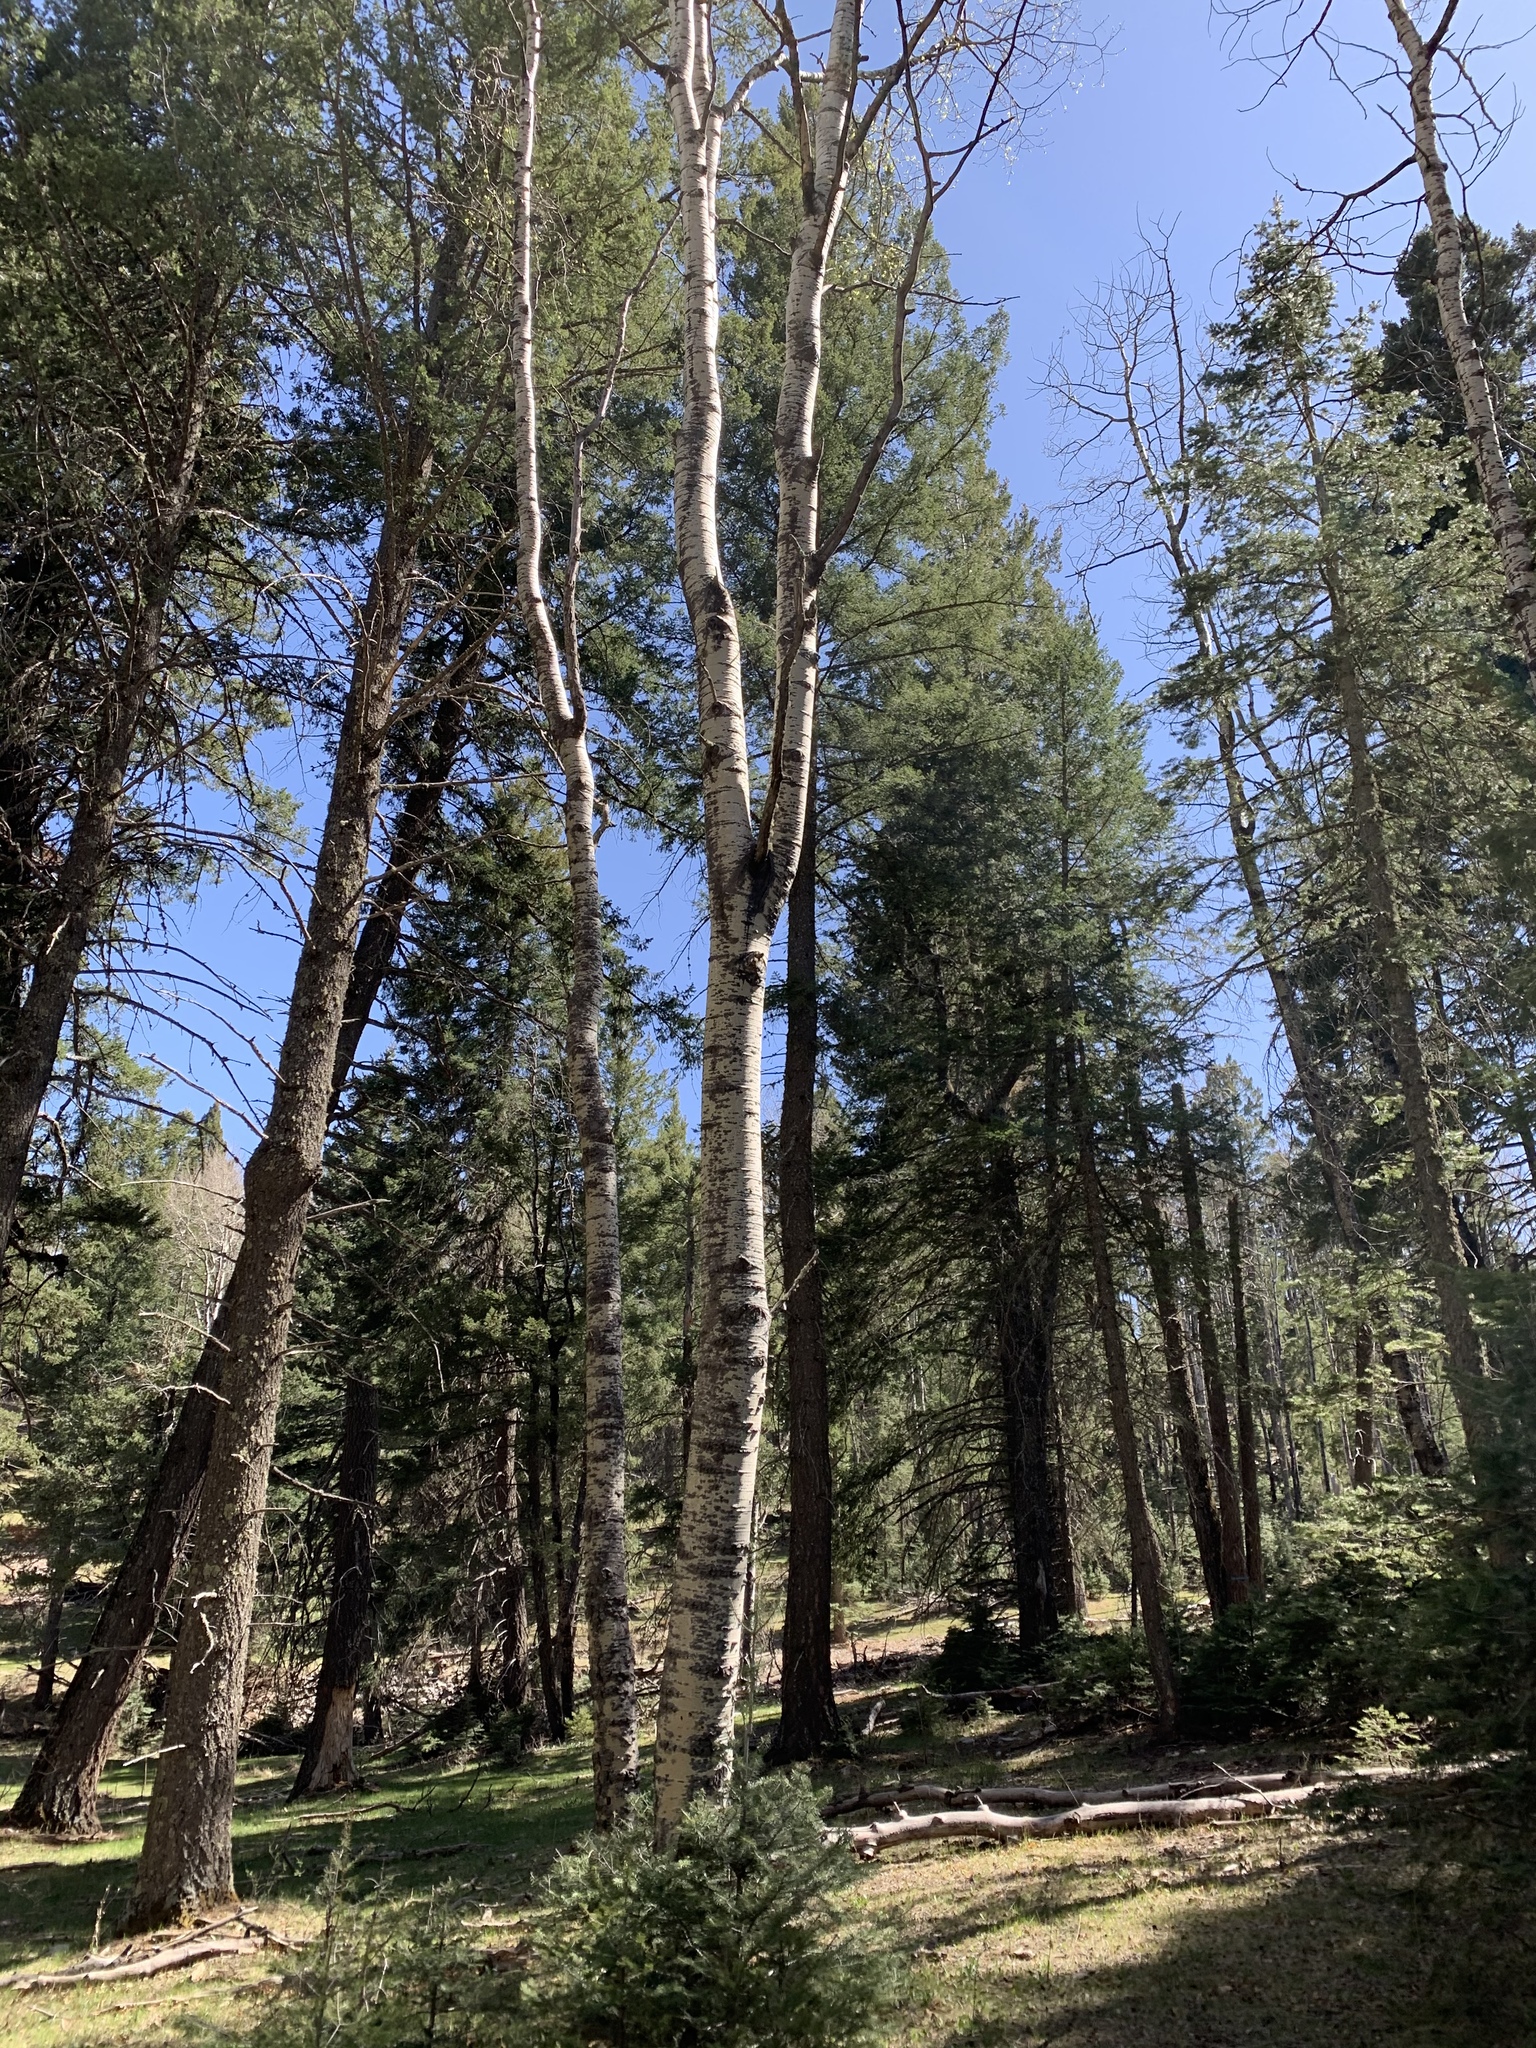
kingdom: Plantae
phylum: Tracheophyta
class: Magnoliopsida
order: Malpighiales
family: Salicaceae
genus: Populus
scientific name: Populus tremuloides
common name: Quaking aspen
